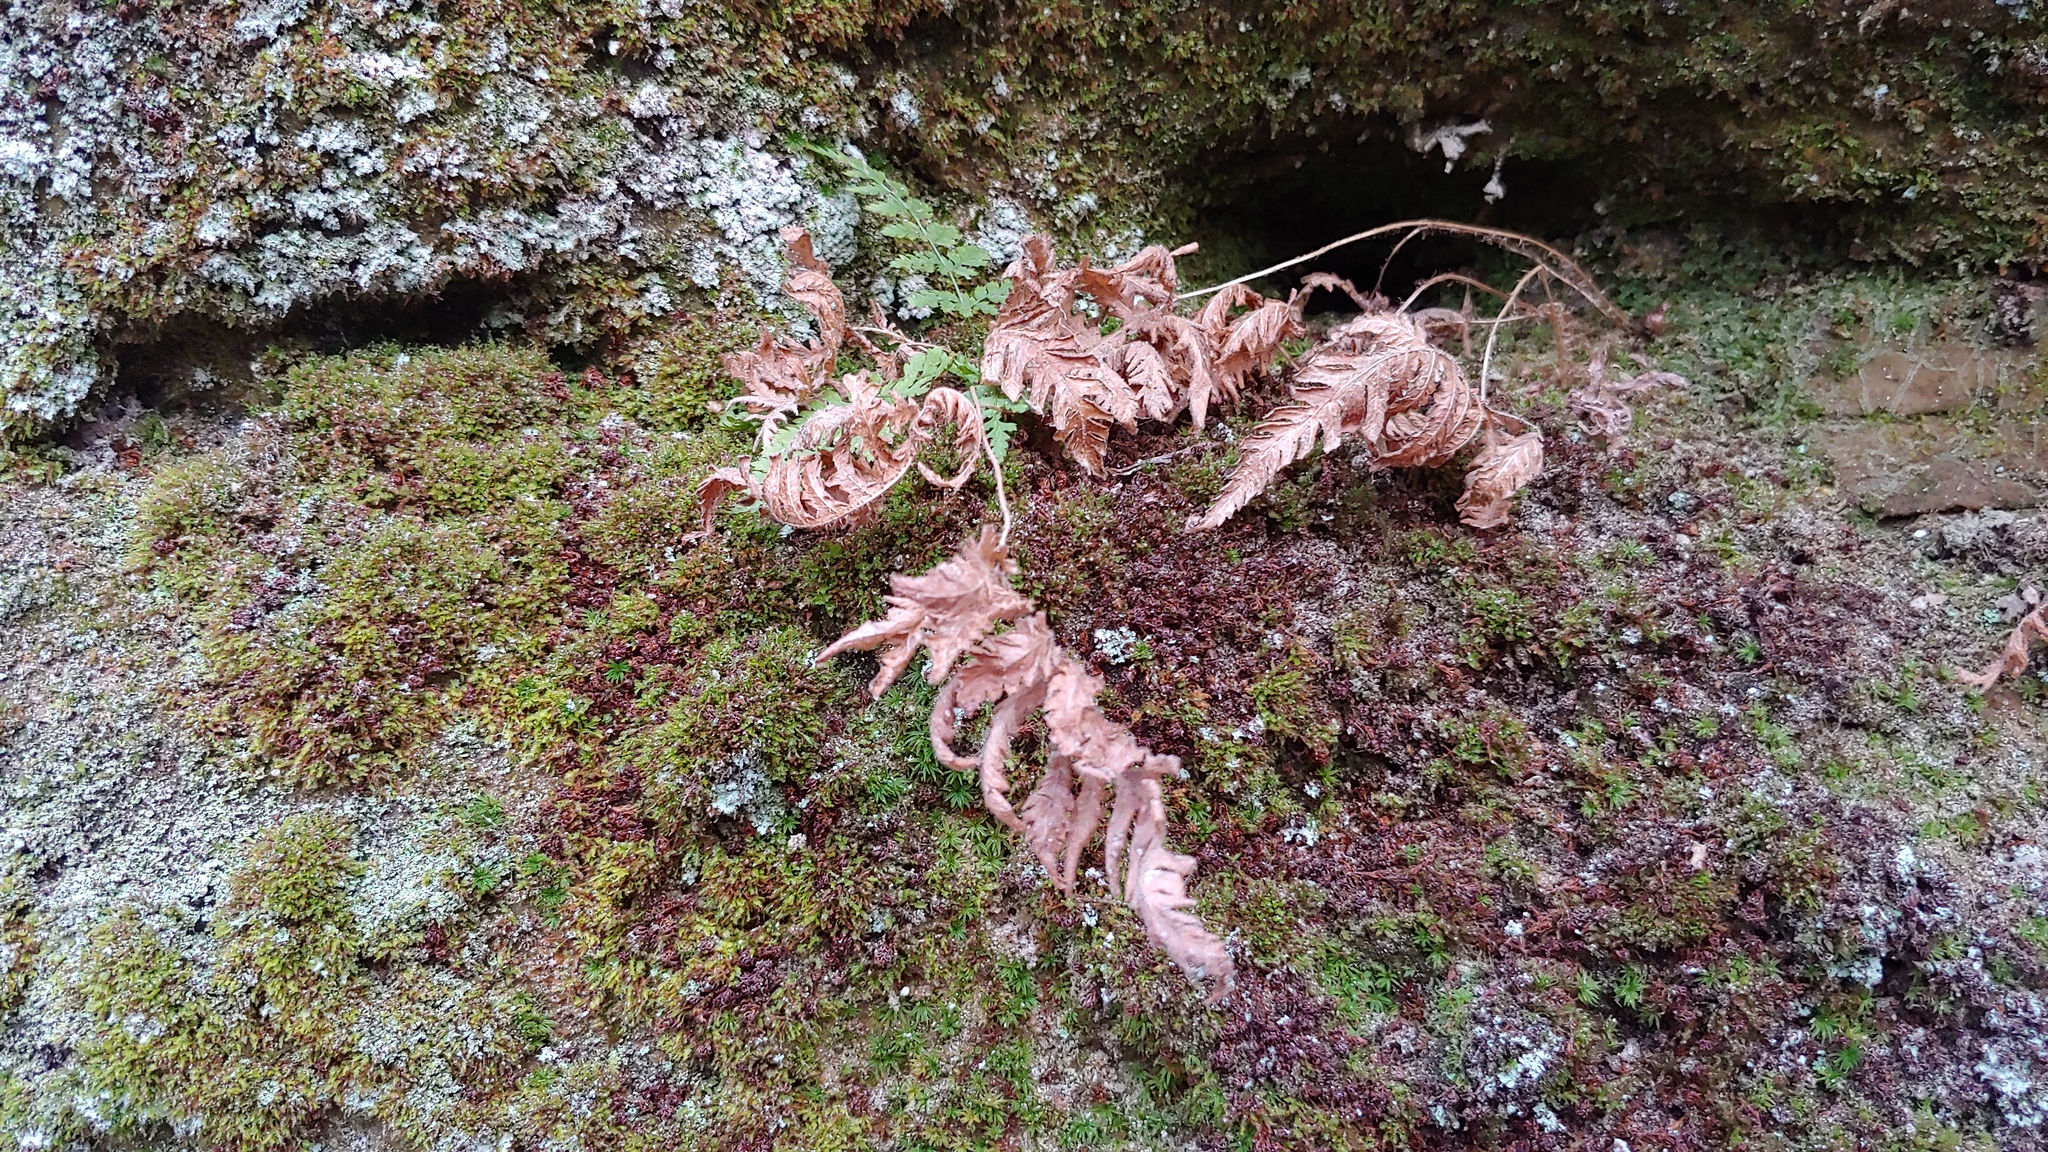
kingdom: Plantae
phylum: Tracheophyta
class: Polypodiopsida
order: Polypodiales
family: Thelypteridaceae
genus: Phegopteris
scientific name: Phegopteris connectilis
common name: Beech fern
